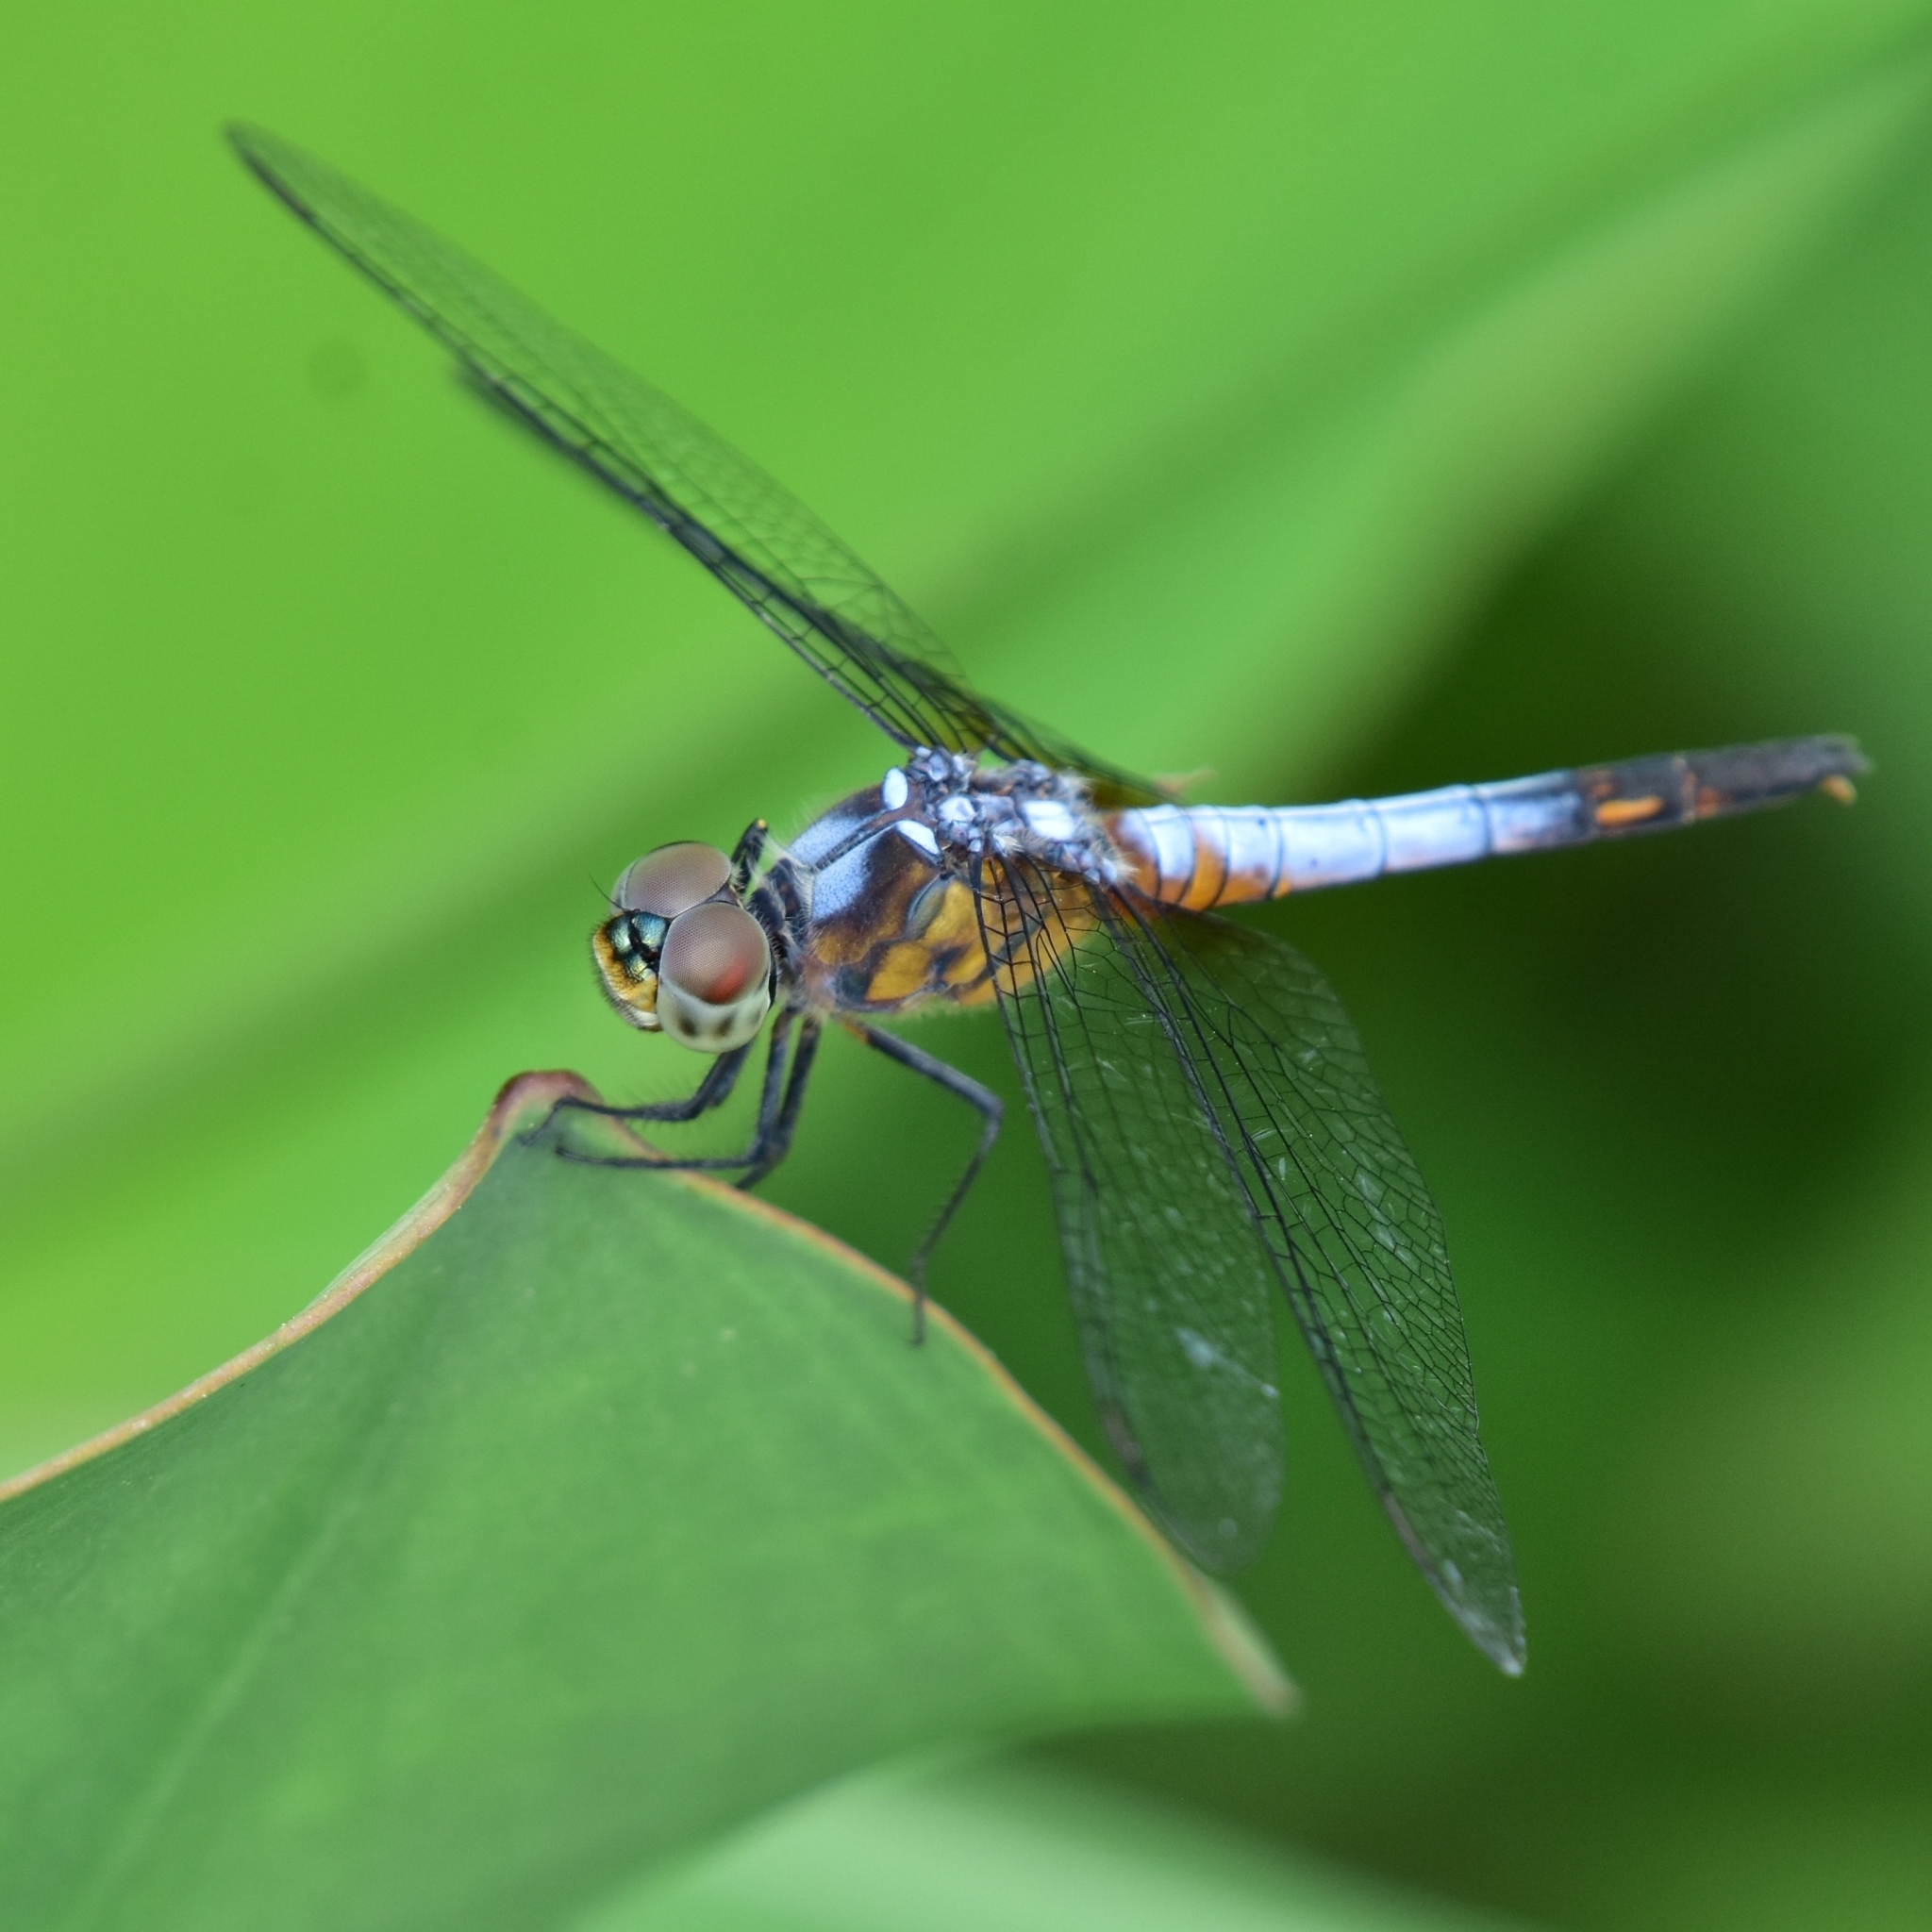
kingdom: Animalia
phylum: Arthropoda
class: Insecta
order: Odonata
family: Libellulidae
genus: Brachydiplax
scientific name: Brachydiplax chalybea
